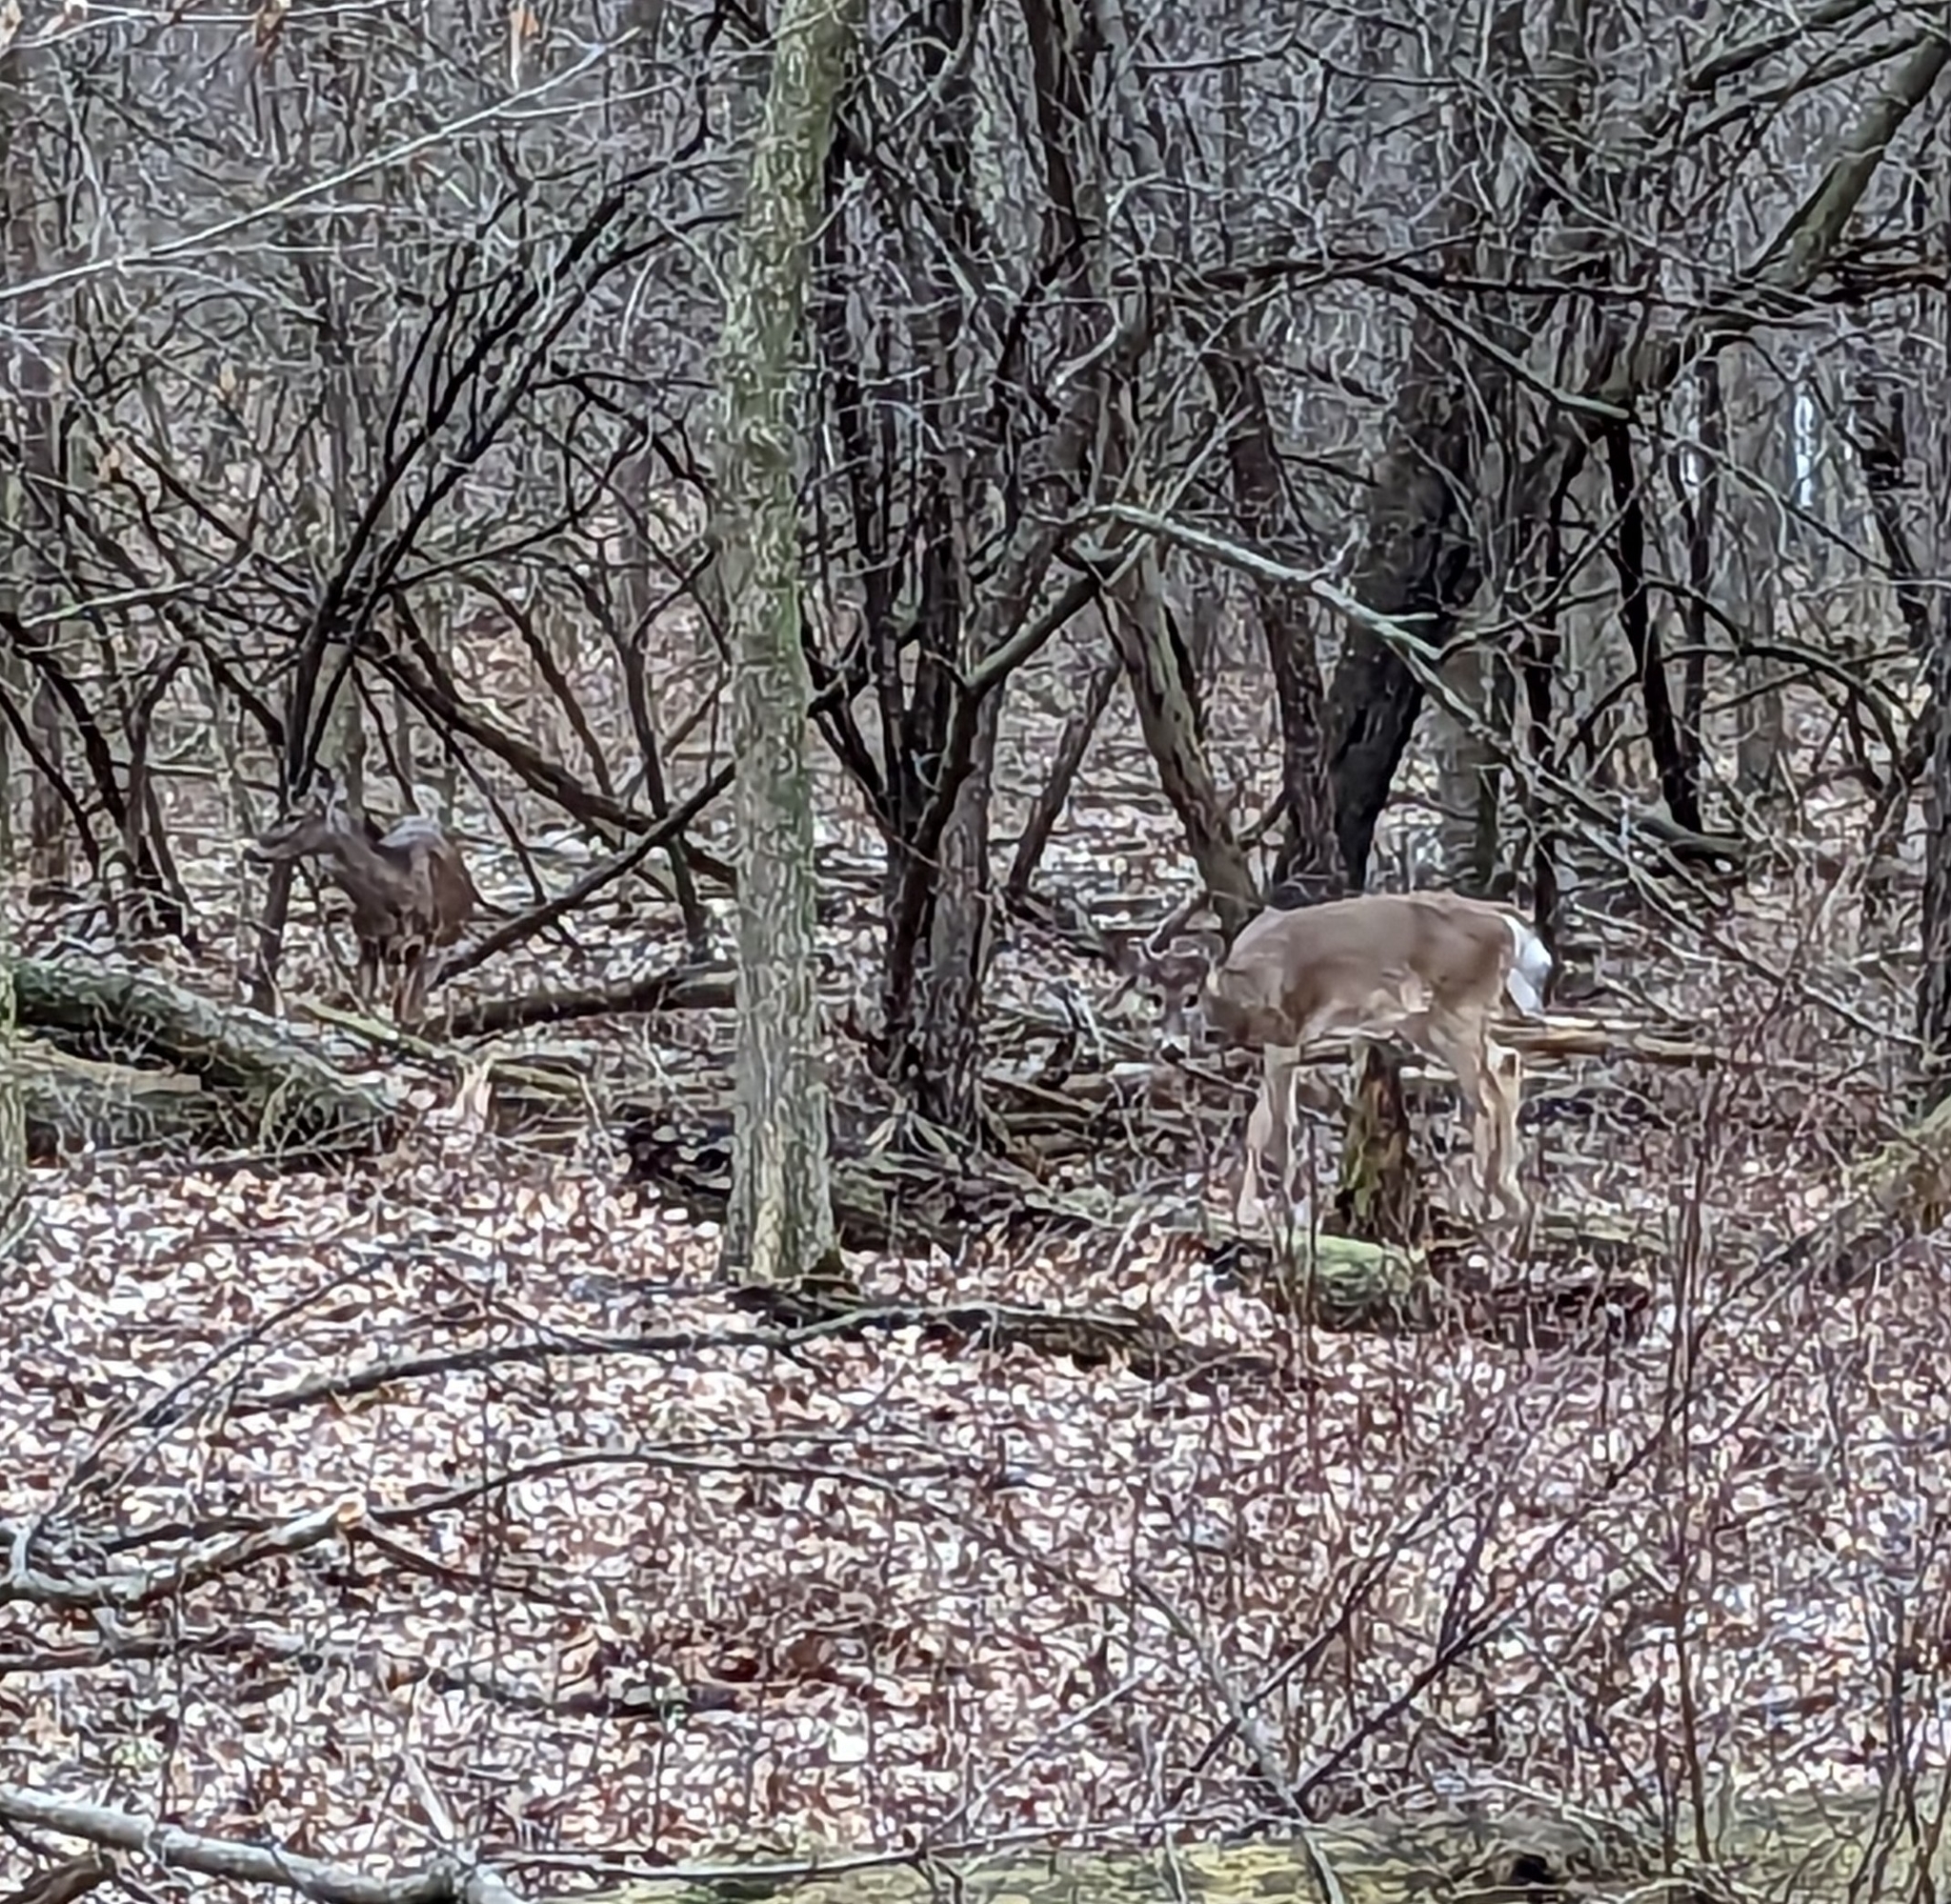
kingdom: Animalia
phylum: Chordata
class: Mammalia
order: Artiodactyla
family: Cervidae
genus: Odocoileus
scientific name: Odocoileus virginianus
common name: White-tailed deer
